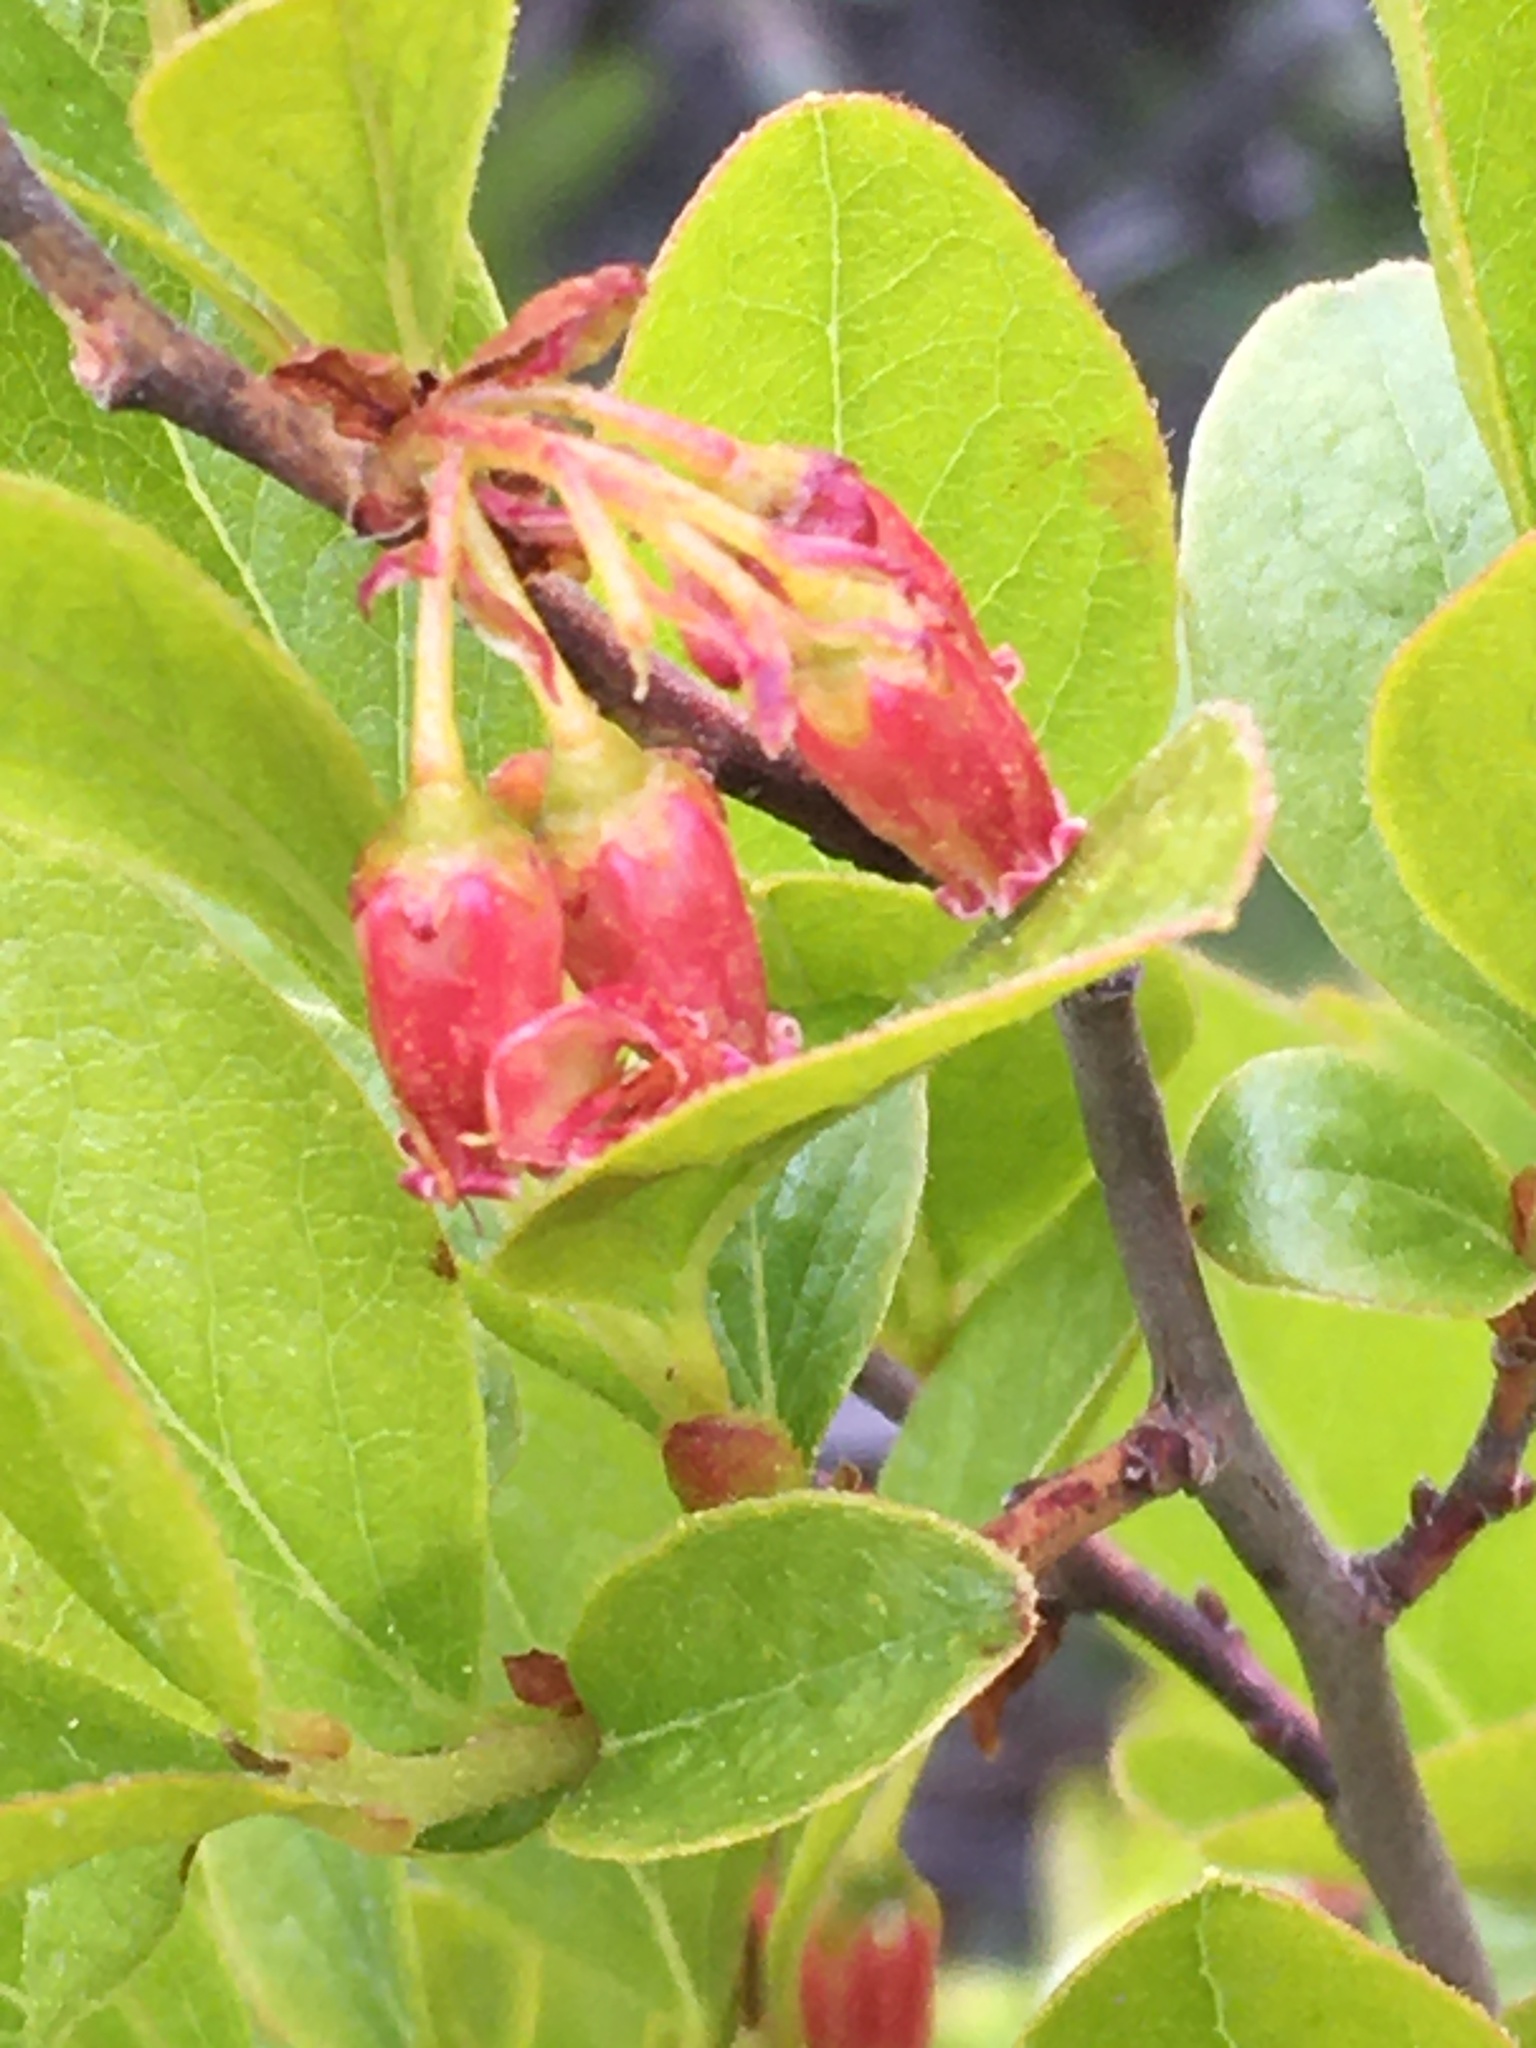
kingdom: Plantae
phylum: Tracheophyta
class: Magnoliopsida
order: Ericales
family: Ericaceae
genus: Gaylussacia
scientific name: Gaylussacia baccata
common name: Black huckleberry
